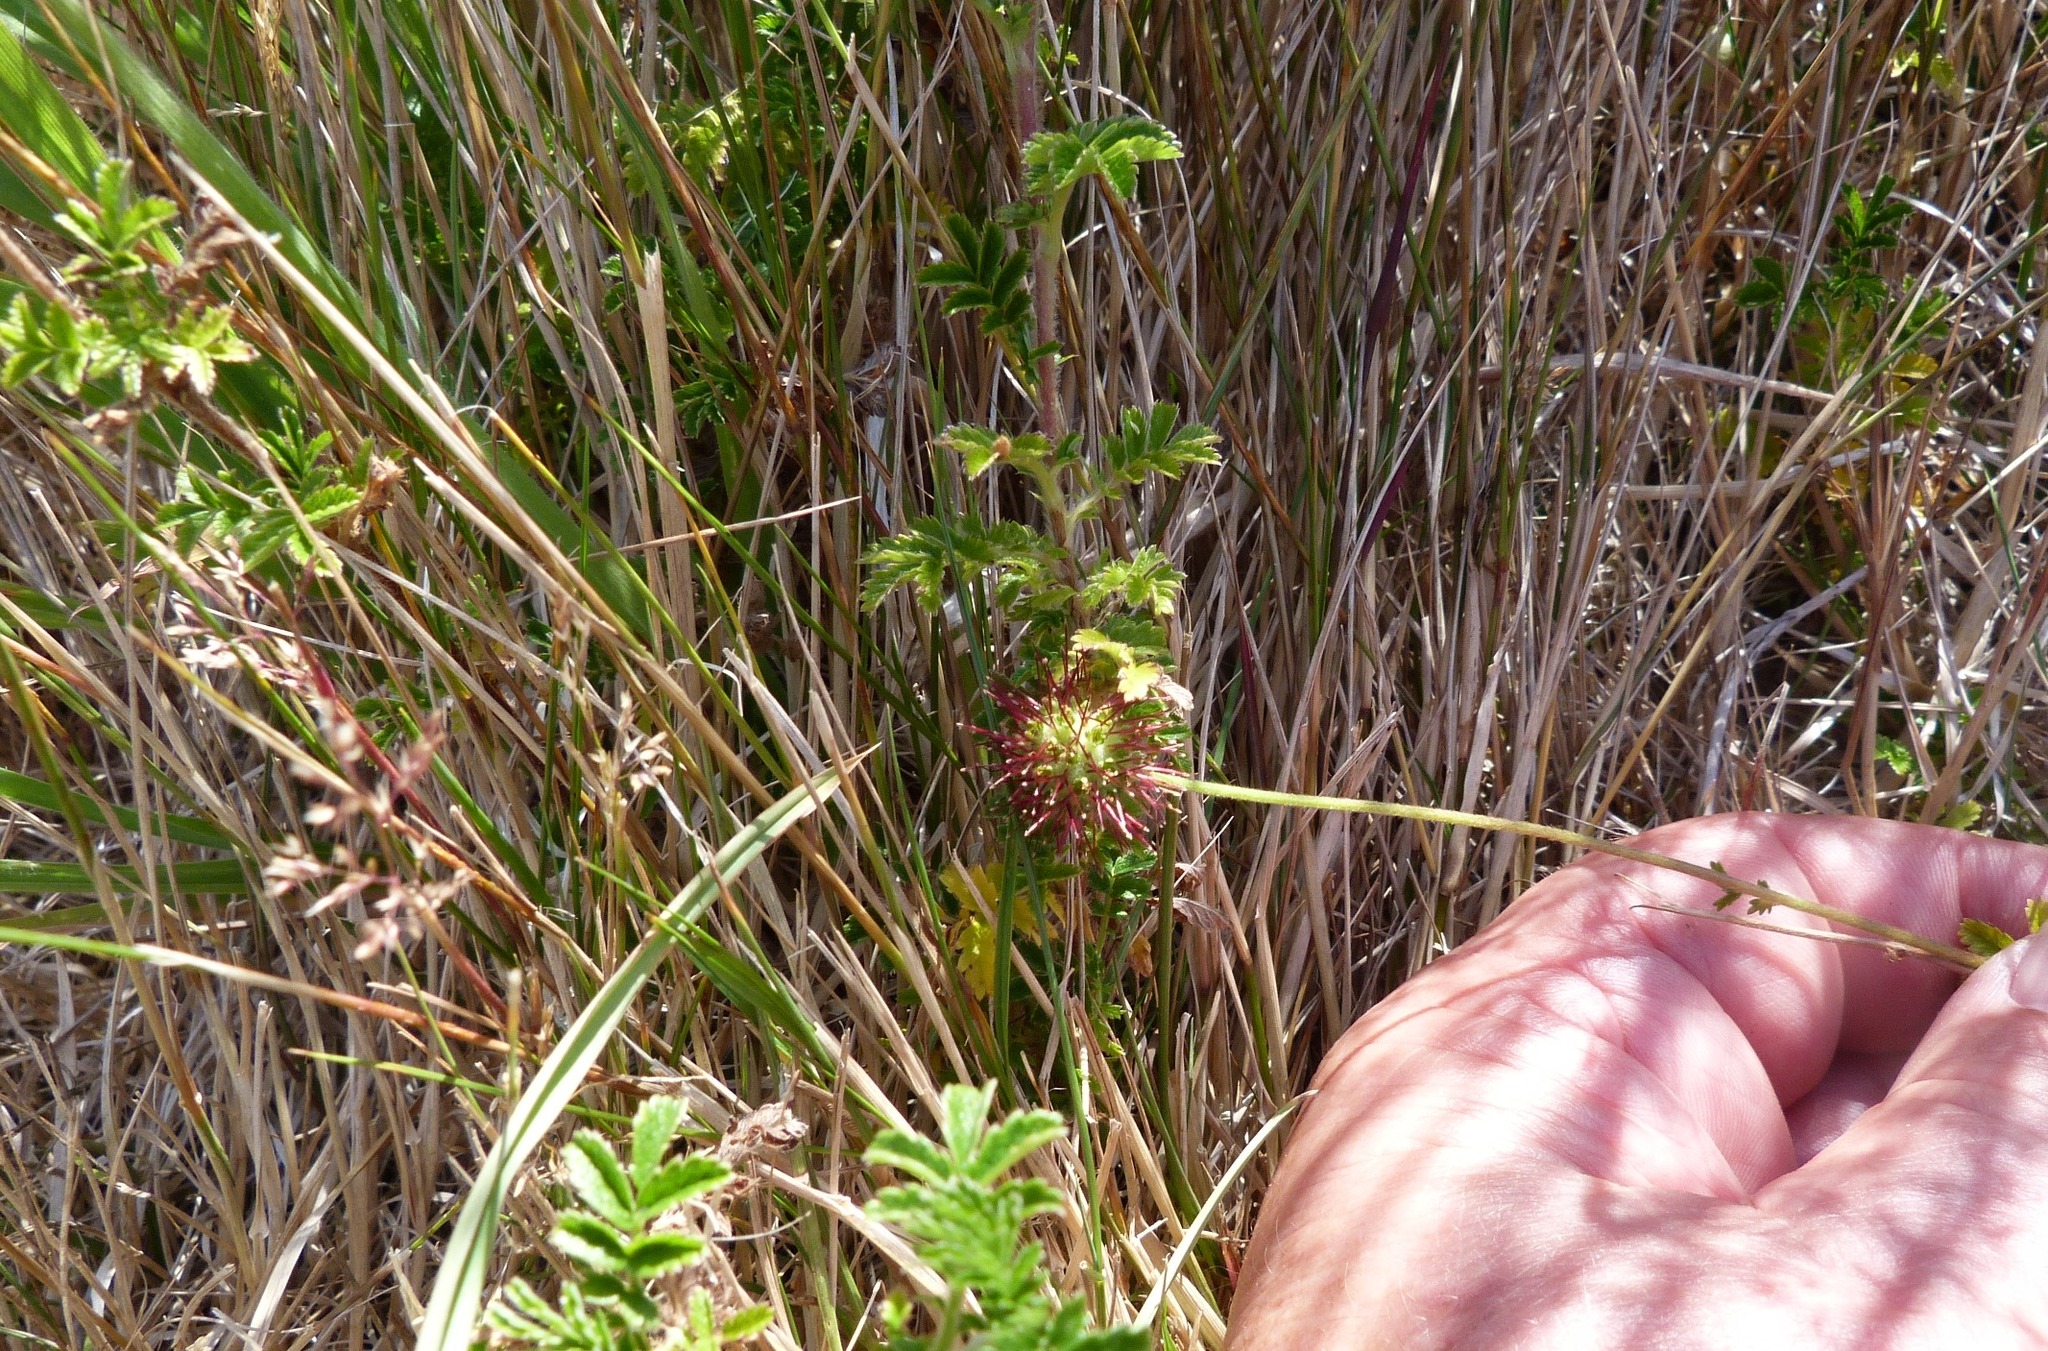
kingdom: Plantae
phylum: Tracheophyta
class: Magnoliopsida
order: Rosales
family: Rosaceae
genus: Acaena
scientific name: Acaena novae-zelandiae
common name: Pirri-pirri-bur
